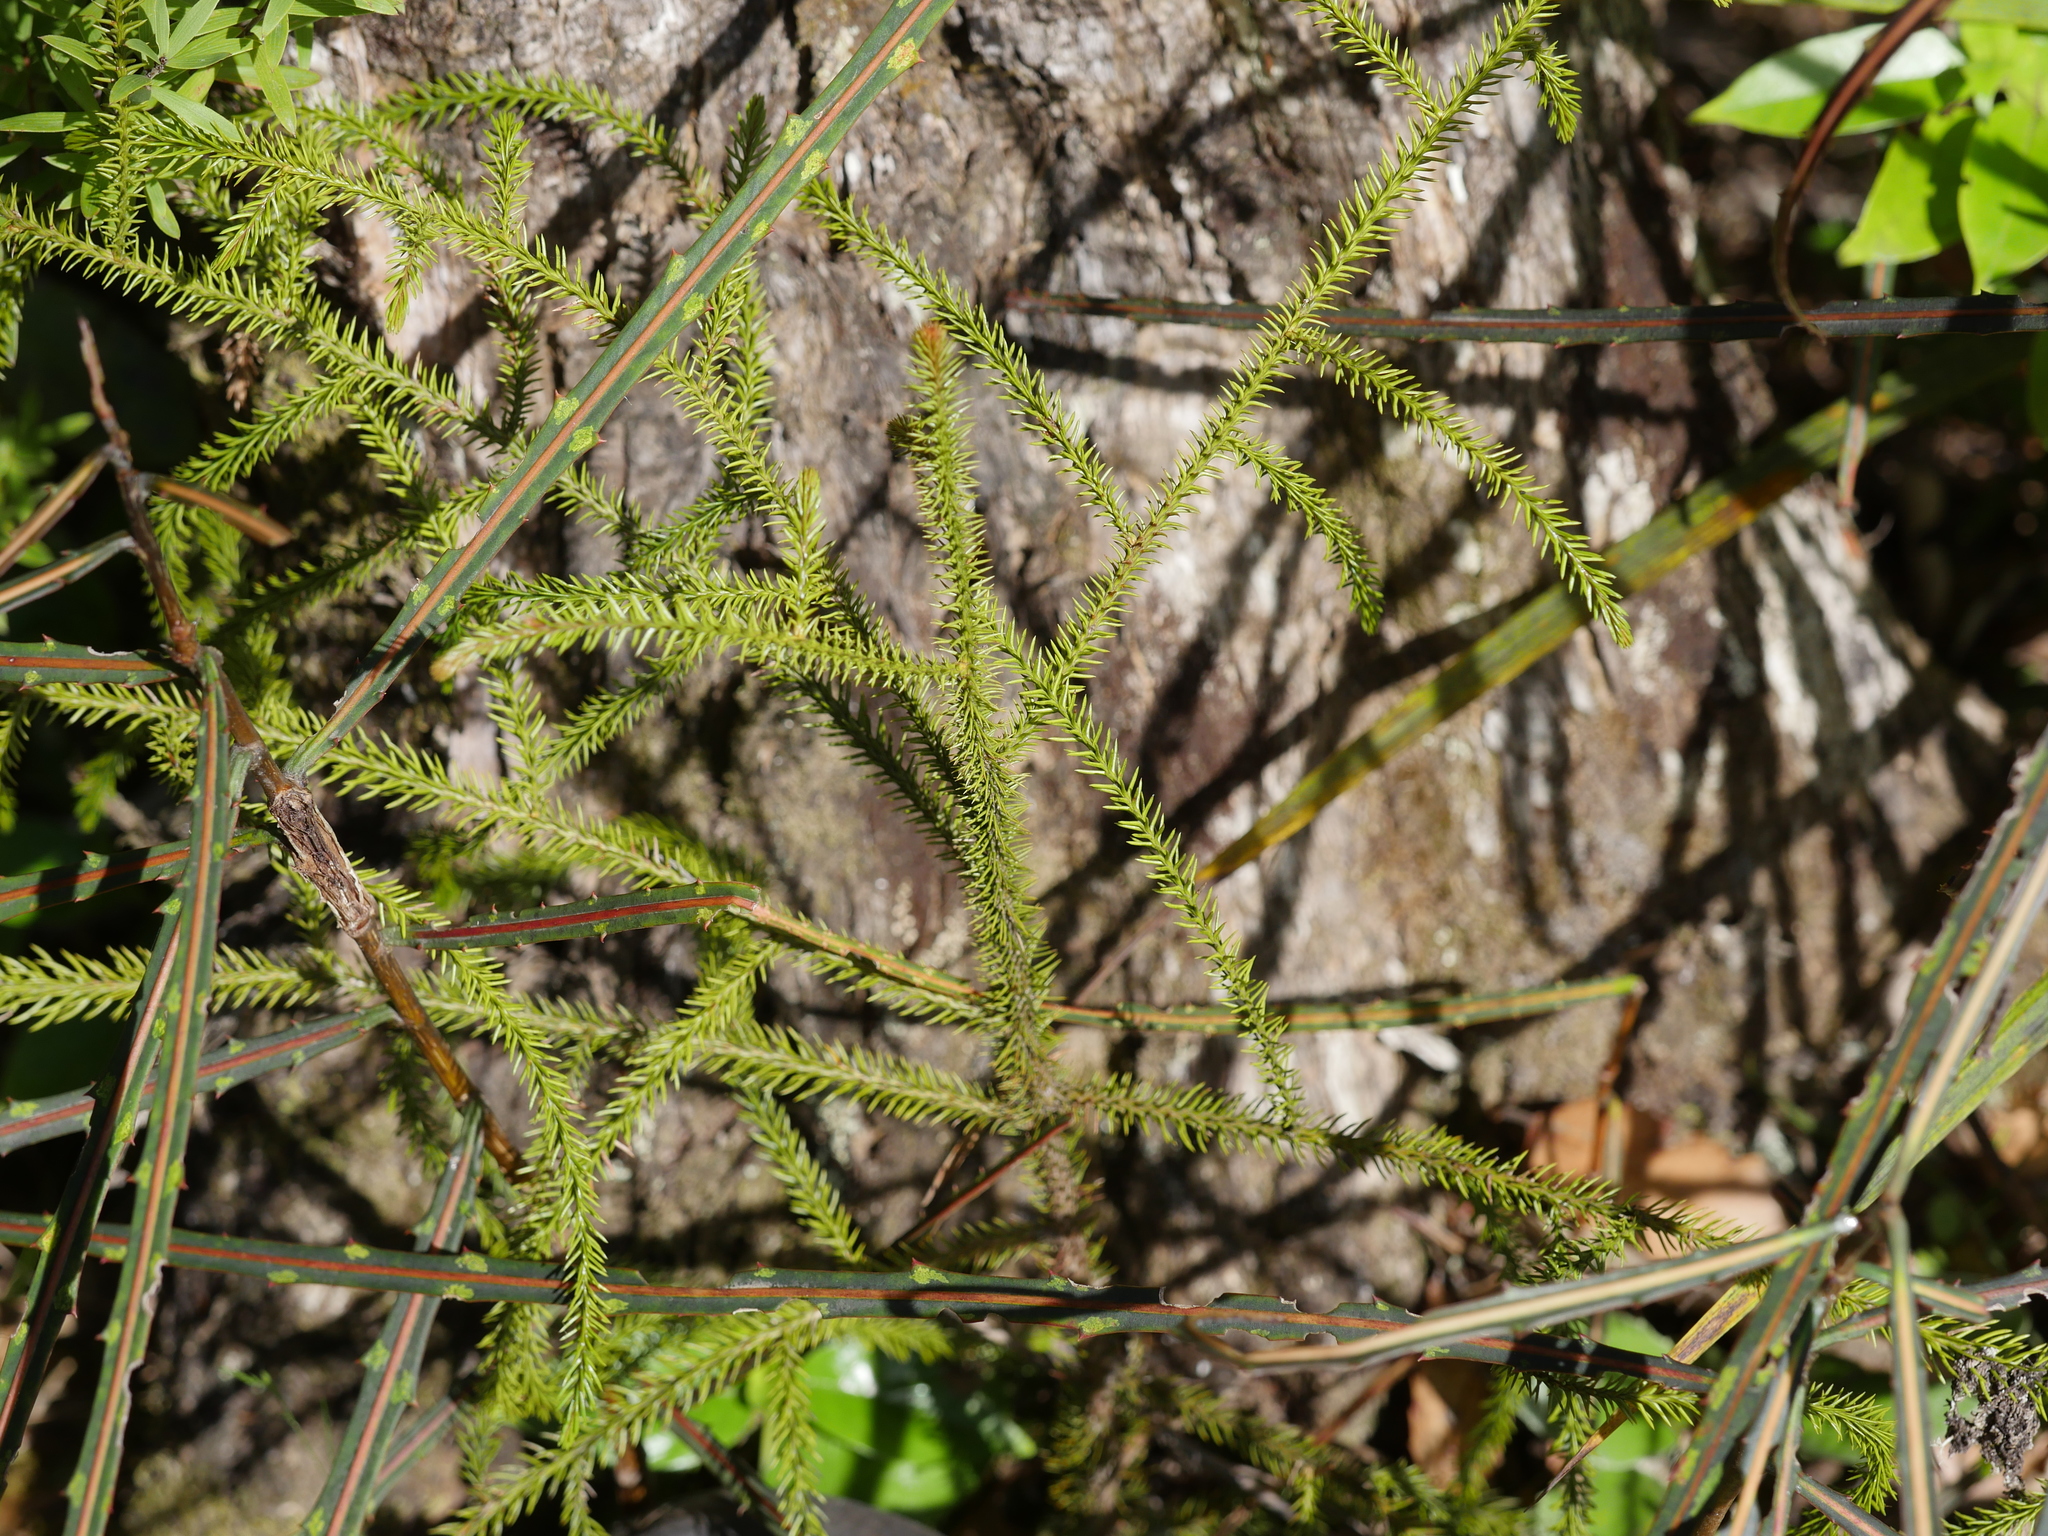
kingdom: Plantae
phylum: Tracheophyta
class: Pinopsida
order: Pinales
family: Podocarpaceae
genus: Dacrydium
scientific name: Dacrydium cupressinum
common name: Red pine
